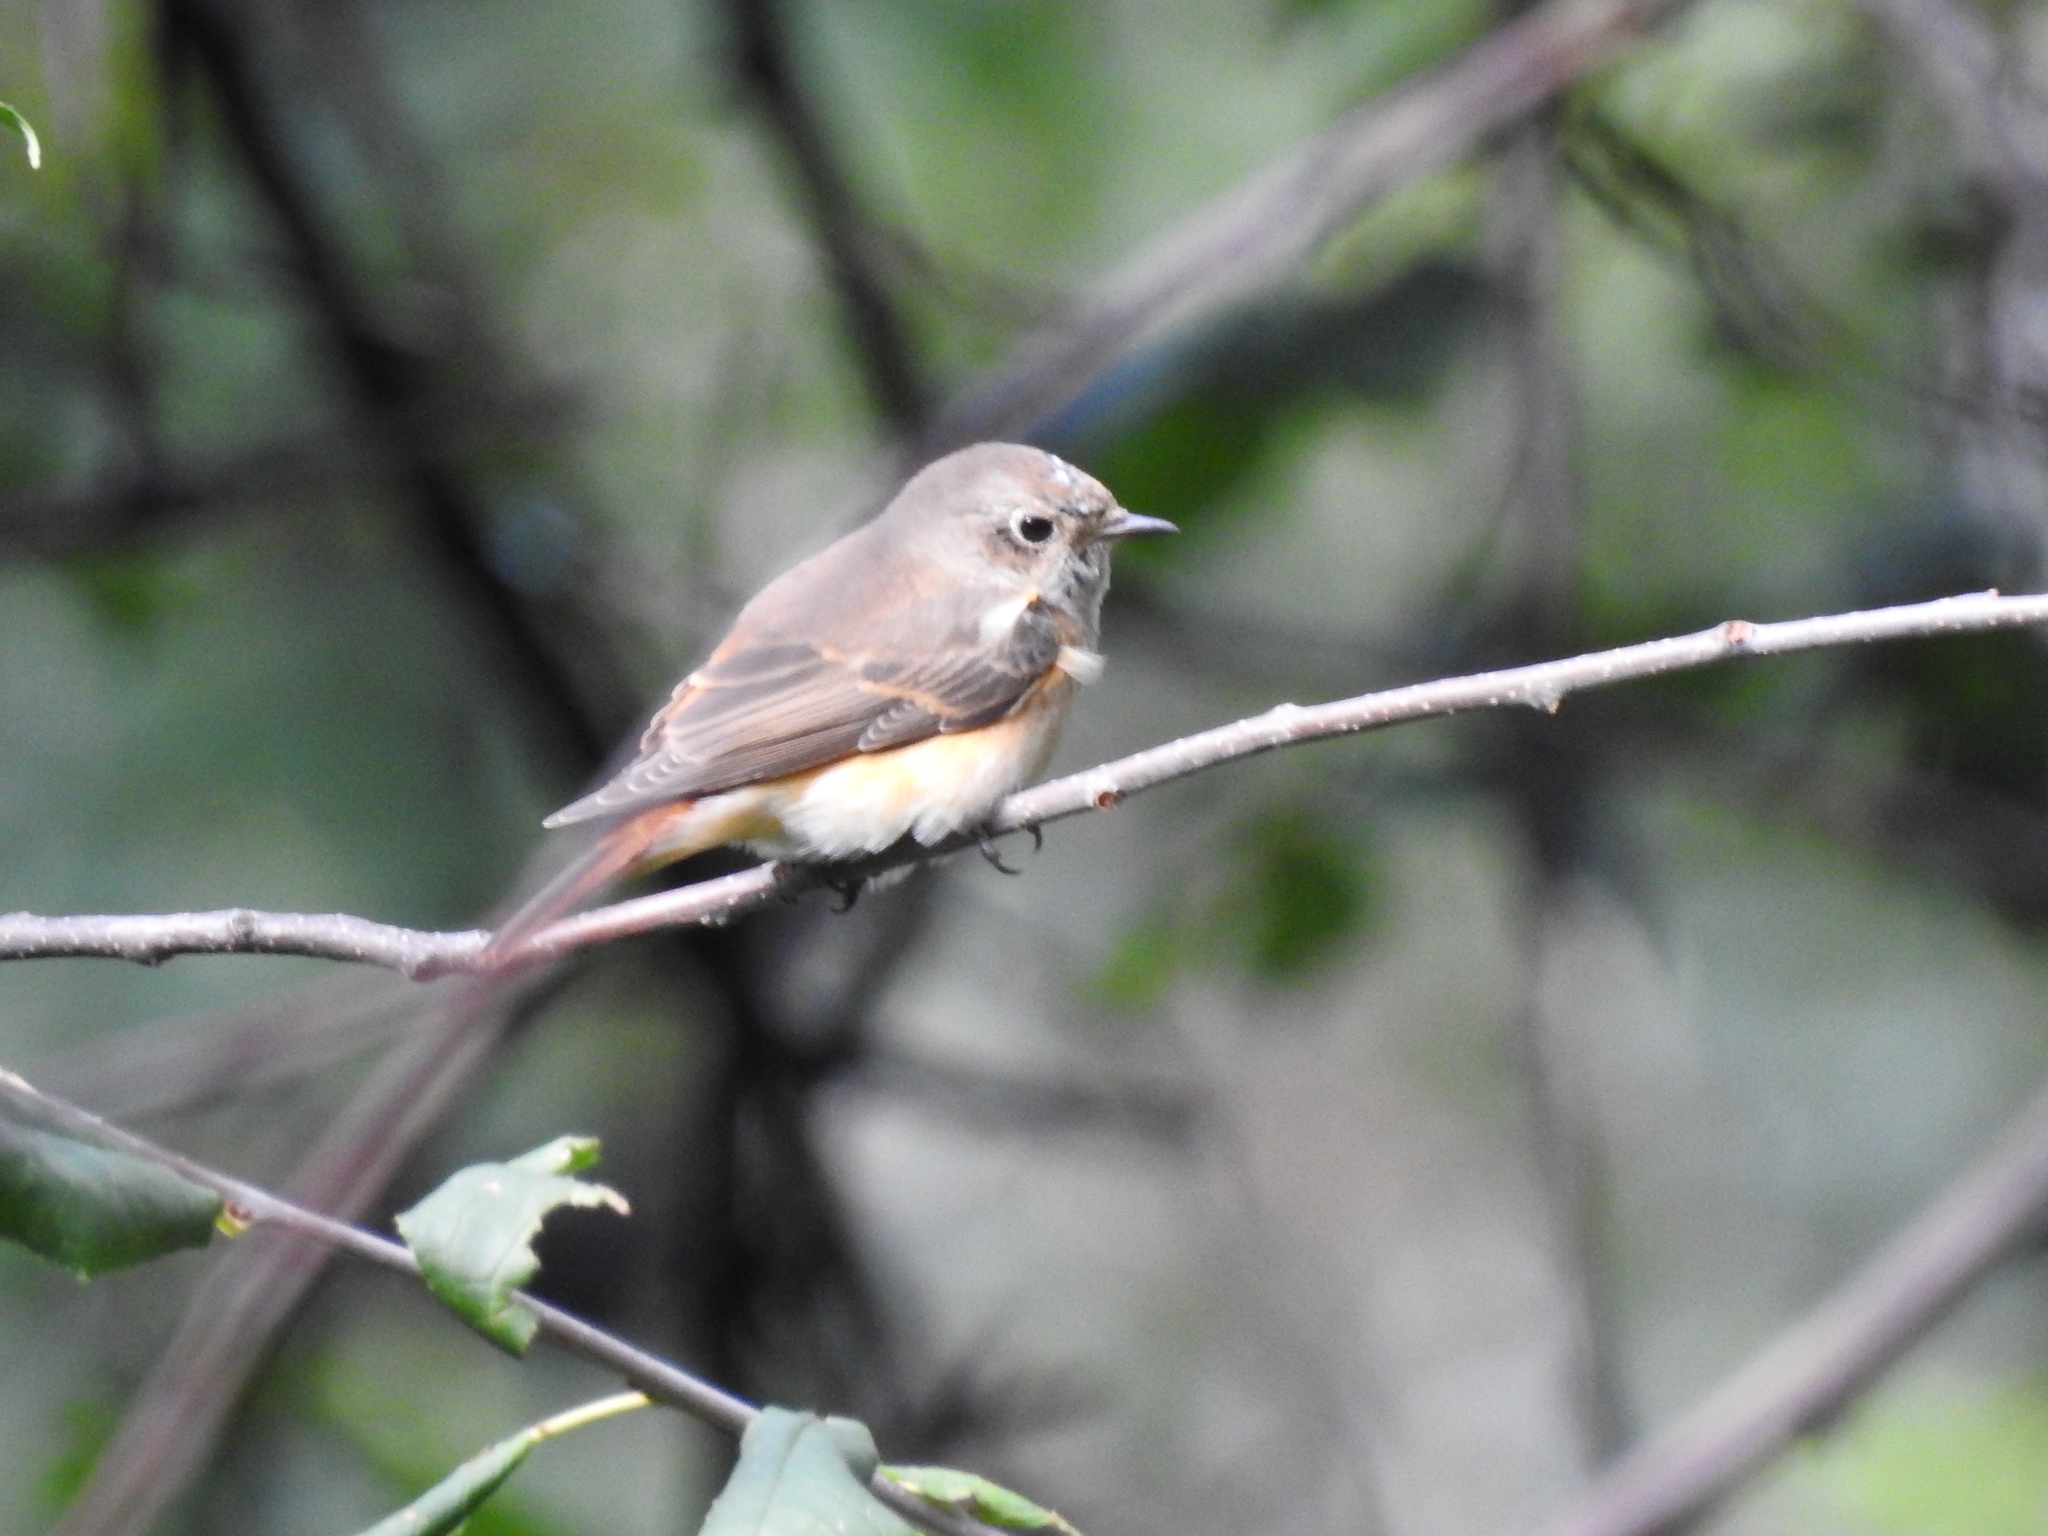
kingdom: Animalia
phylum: Chordata
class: Aves
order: Passeriformes
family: Muscicapidae
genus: Phoenicurus
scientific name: Phoenicurus phoenicurus
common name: Common redstart
